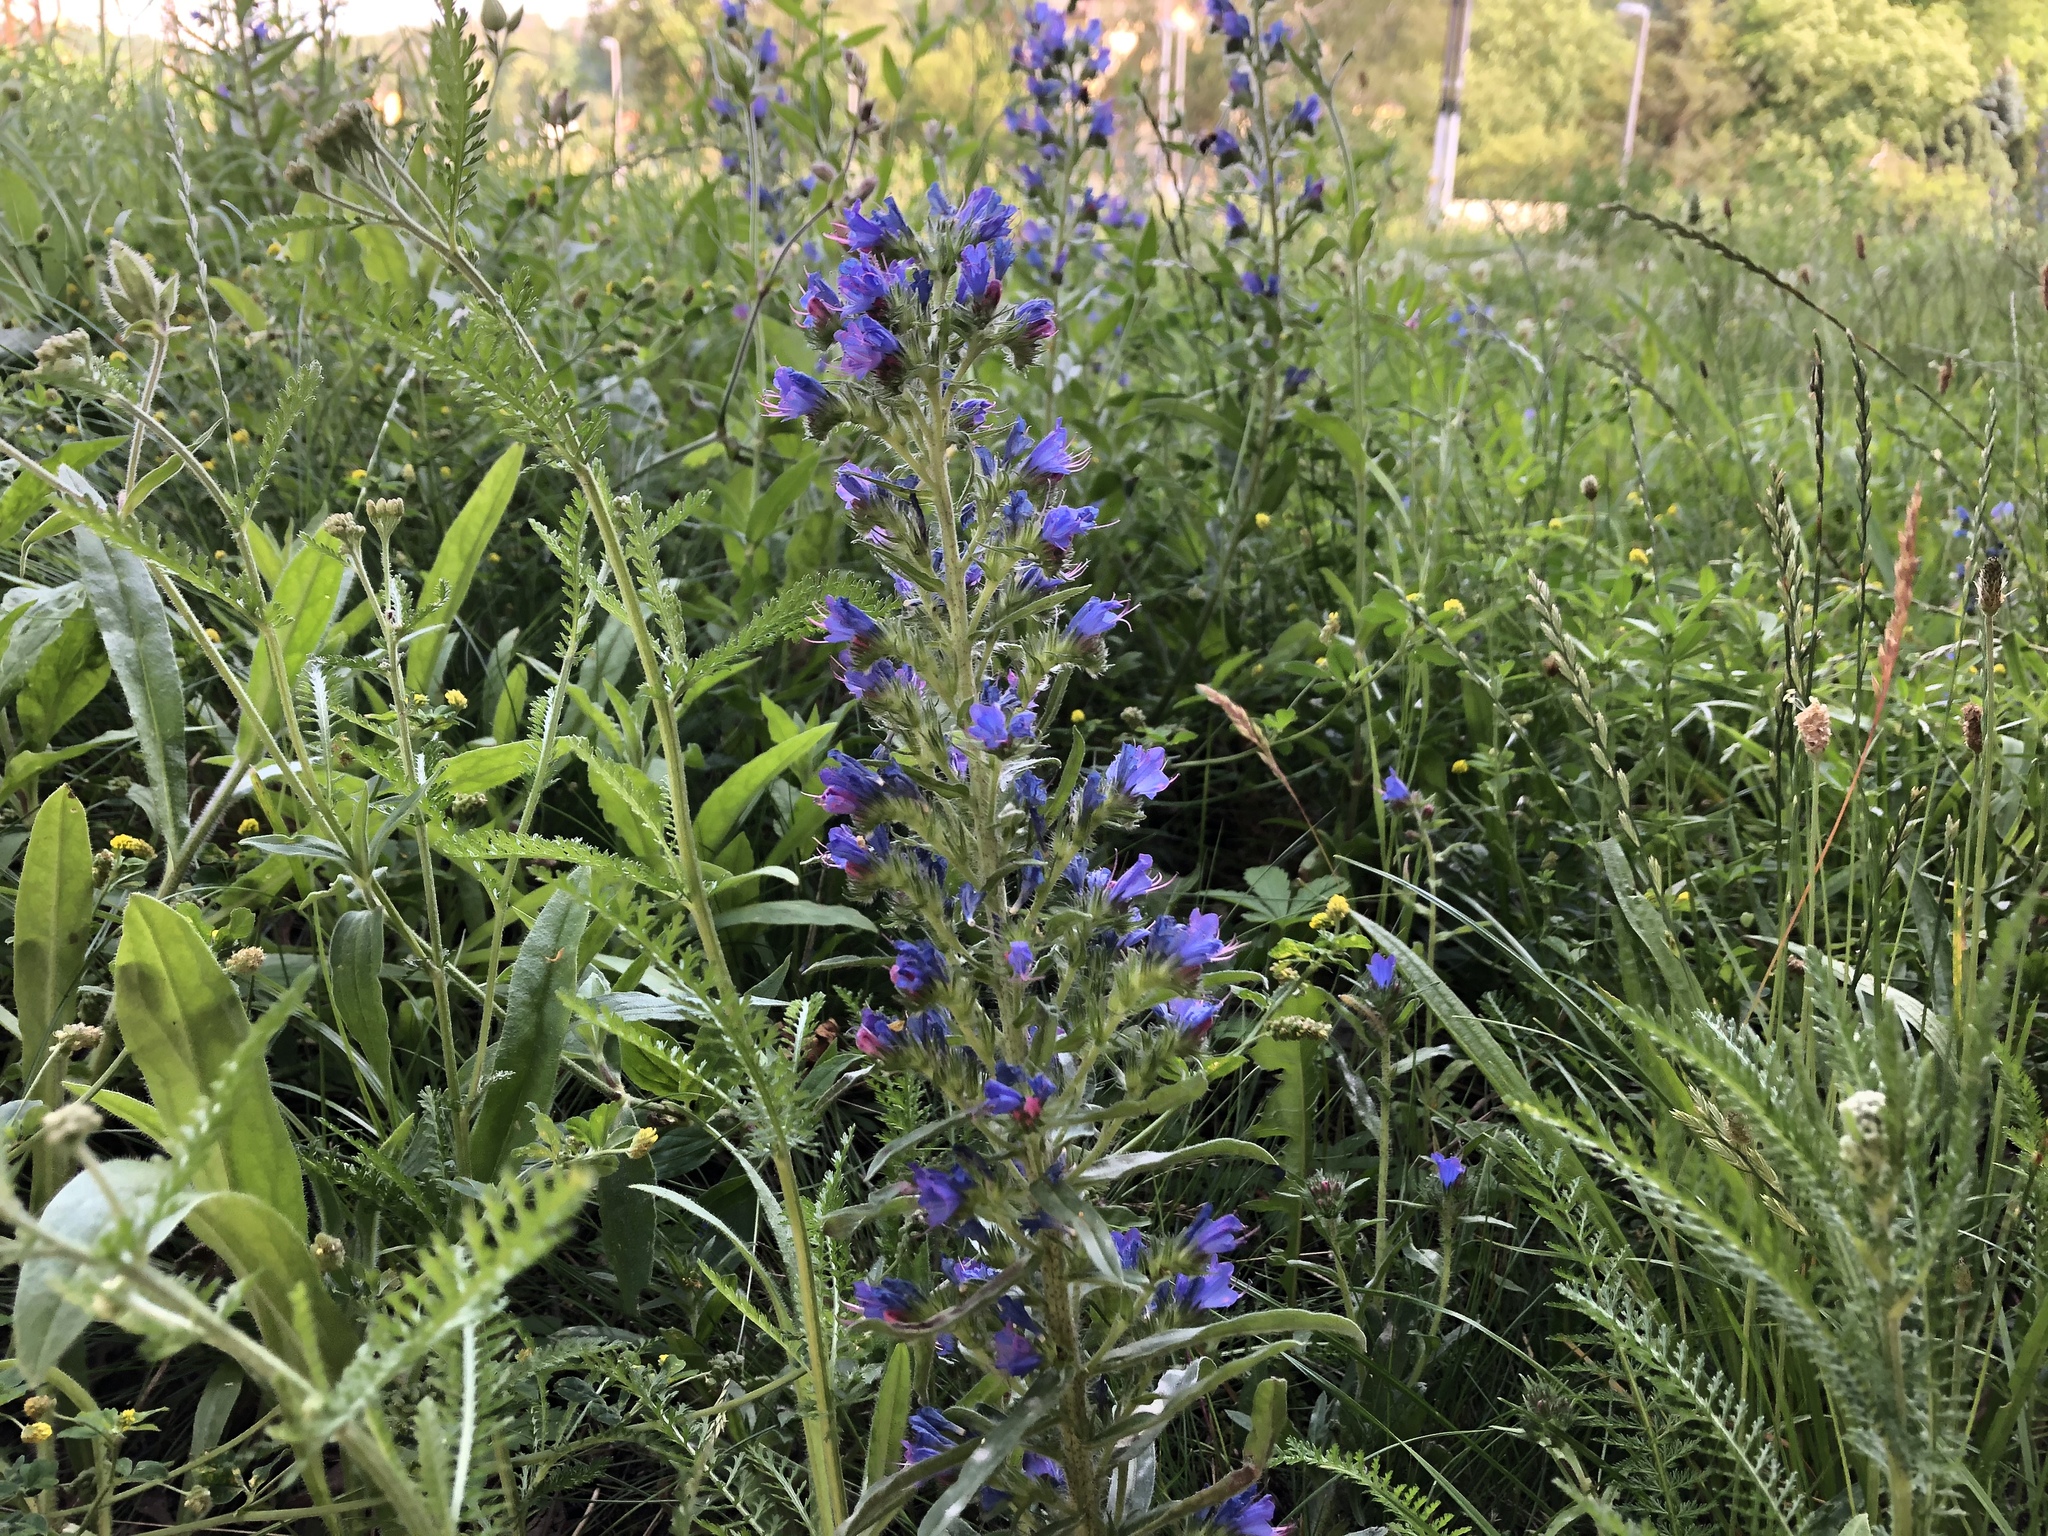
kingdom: Plantae
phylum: Tracheophyta
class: Magnoliopsida
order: Boraginales
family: Boraginaceae
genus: Echium
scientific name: Echium vulgare
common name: Common viper's bugloss
